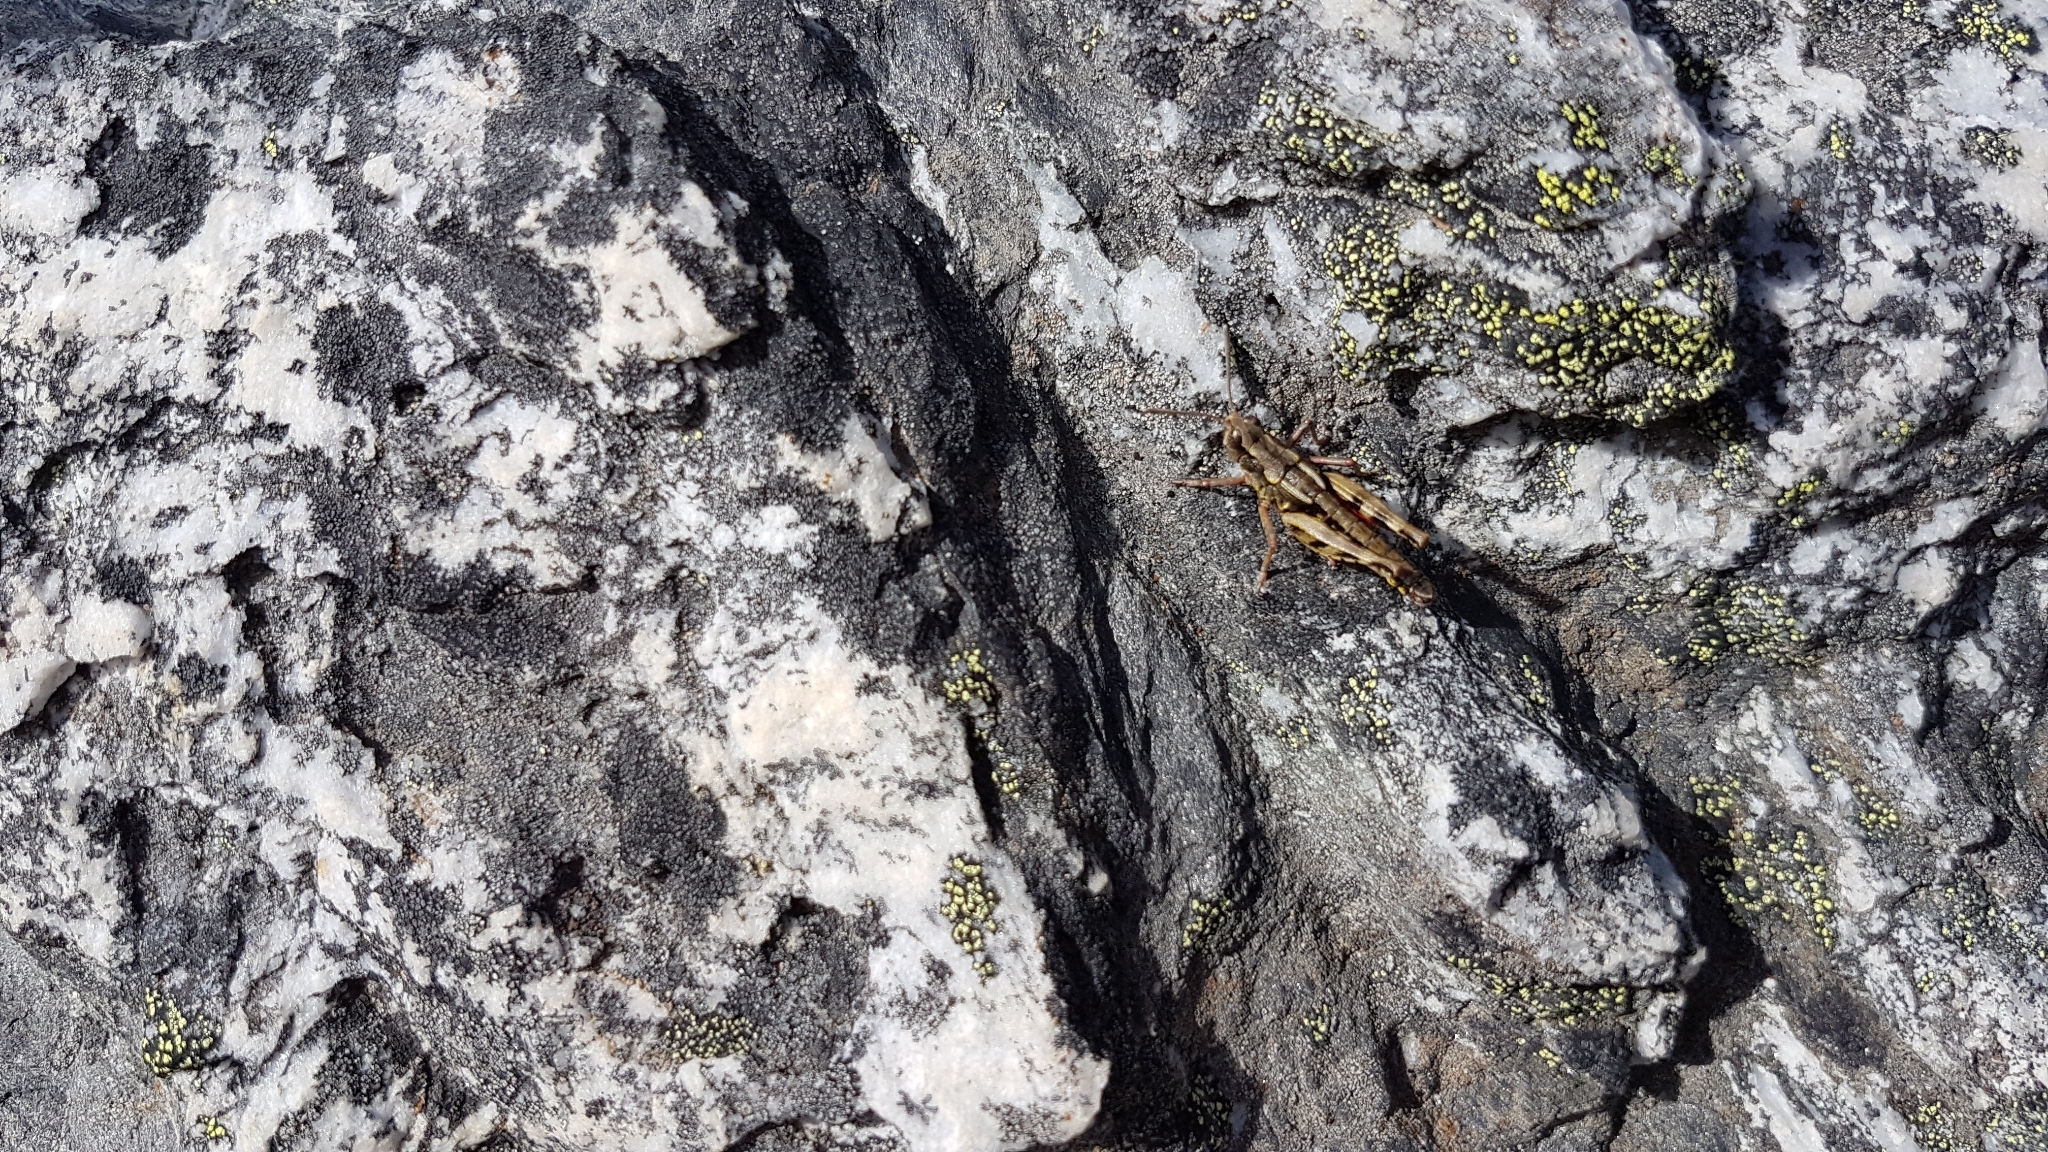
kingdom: Animalia
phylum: Arthropoda
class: Insecta
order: Orthoptera
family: Acrididae
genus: Sigaus
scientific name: Sigaus australis
